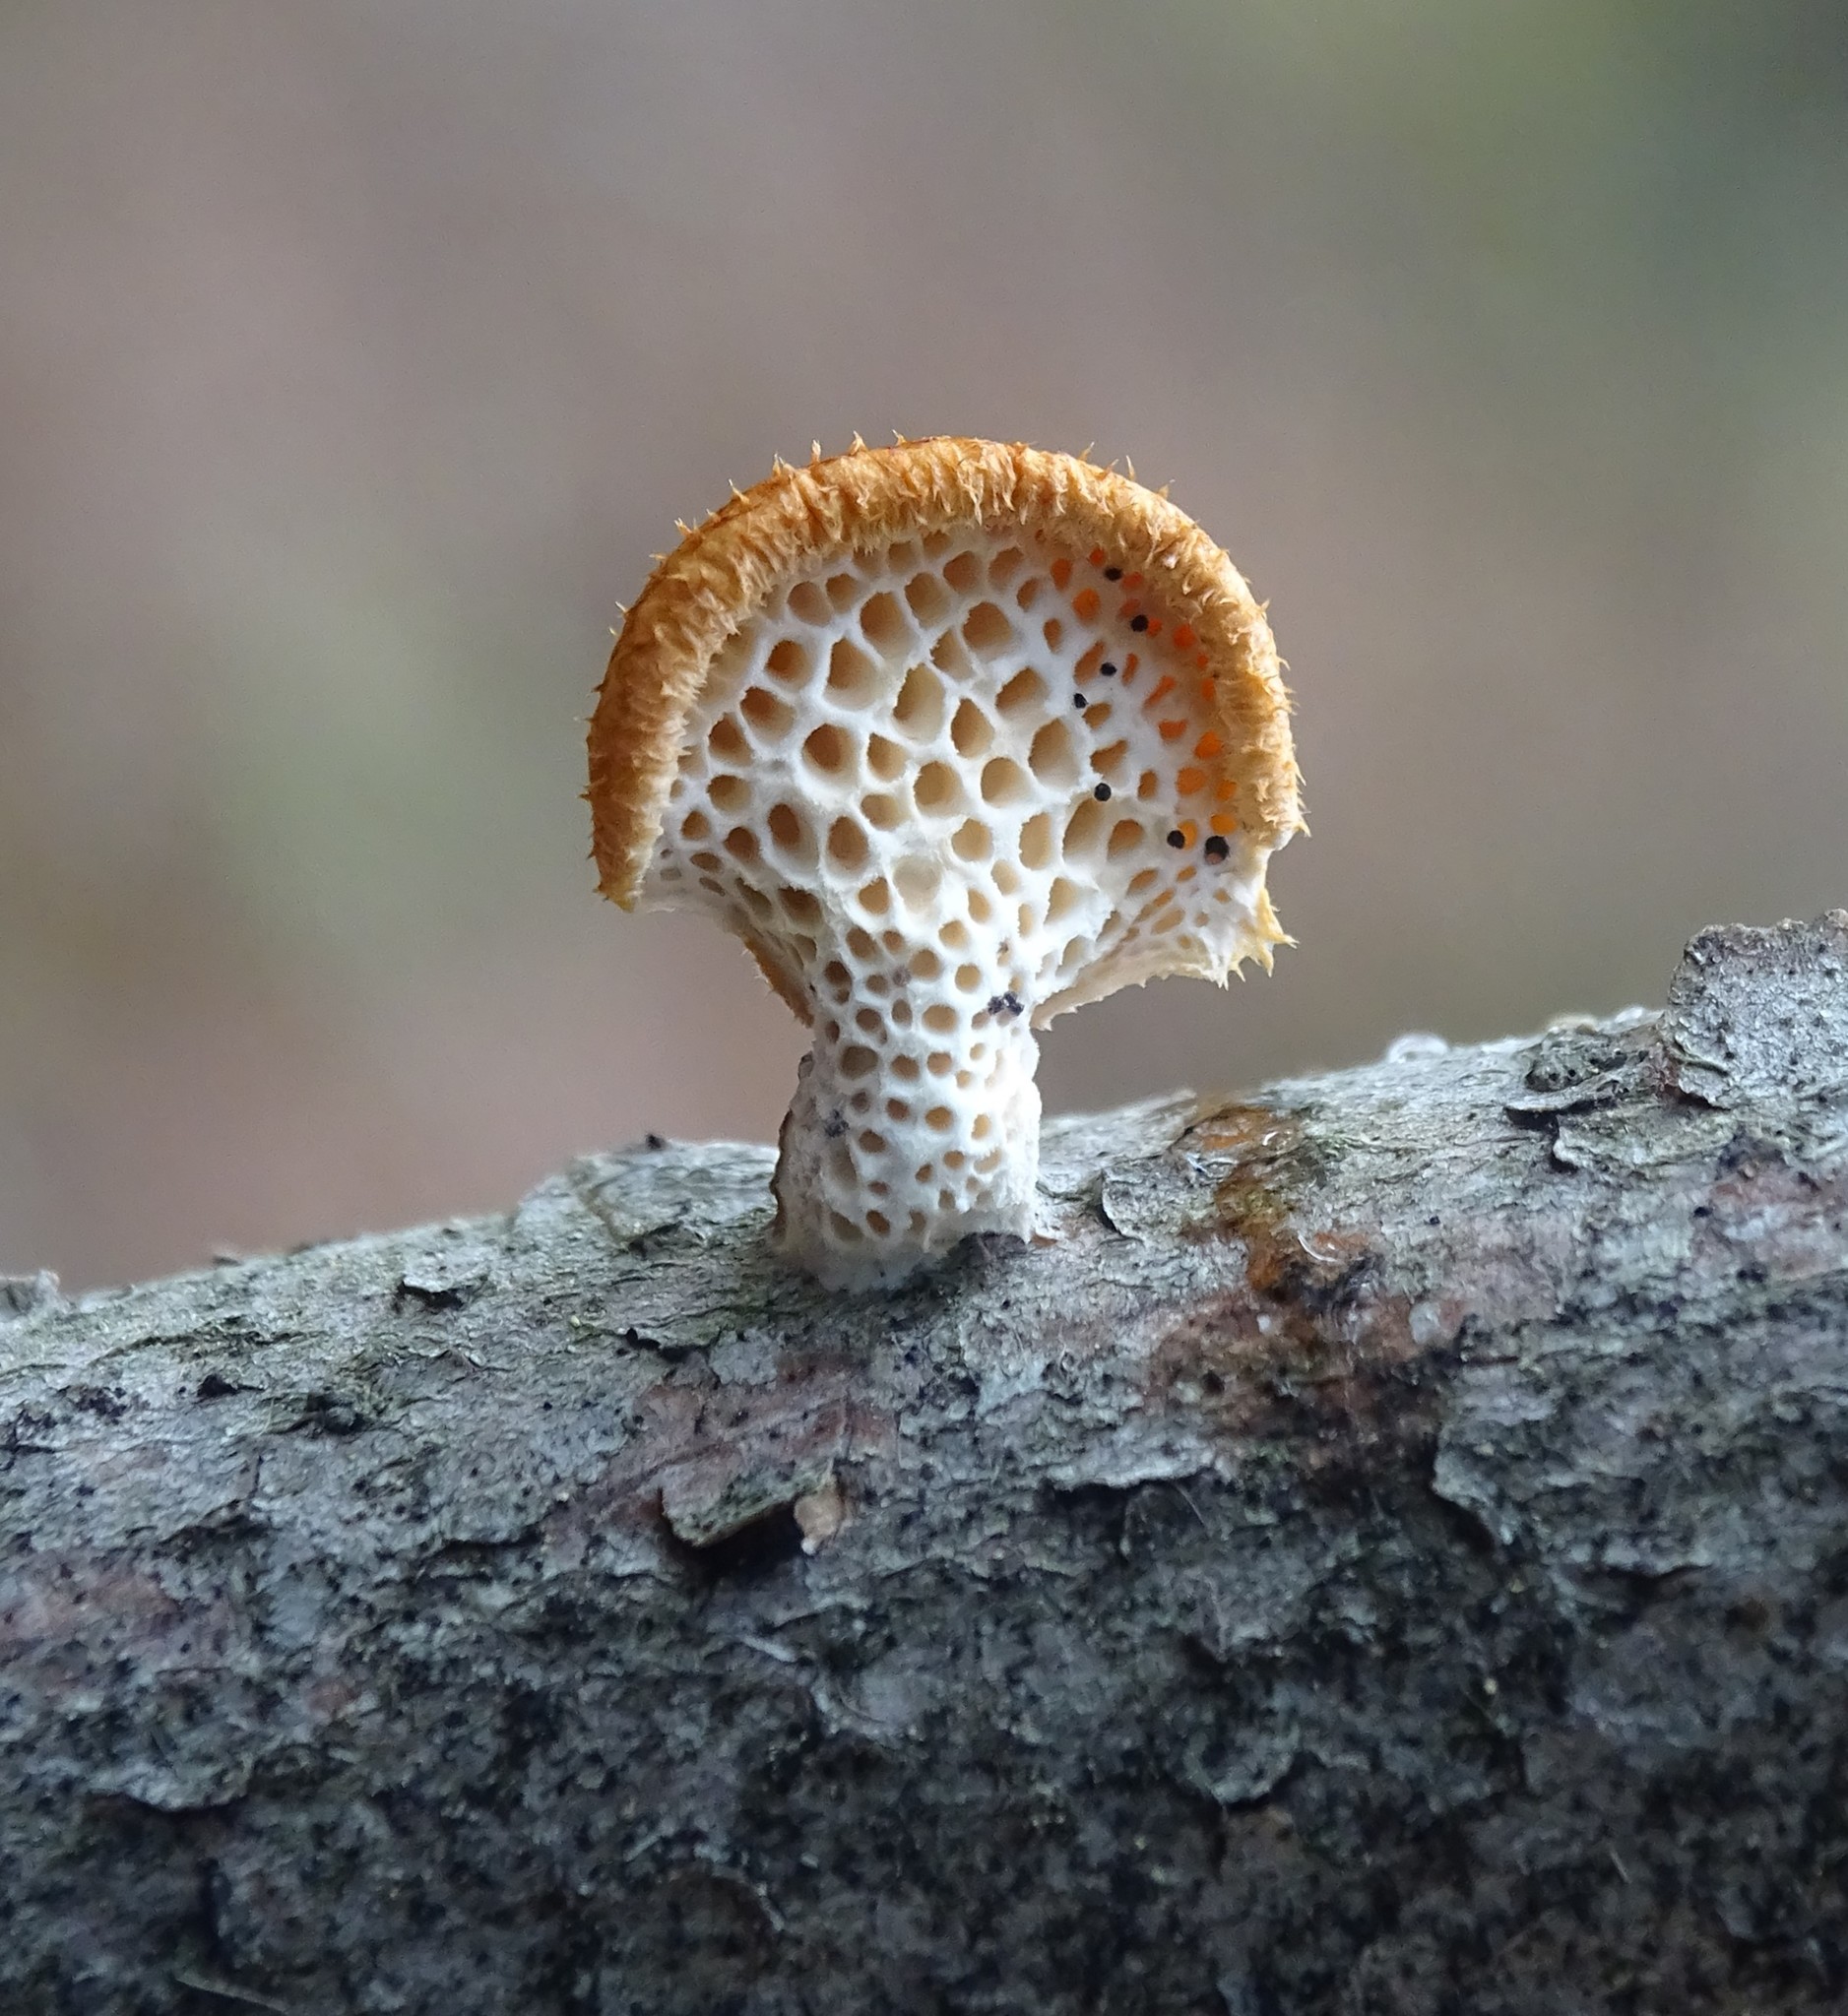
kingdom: Fungi
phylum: Basidiomycota
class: Agaricomycetes
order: Polyporales
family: Polyporaceae
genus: Neofavolus
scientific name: Neofavolus alveolaris
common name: Hexagonal-pored polypore
